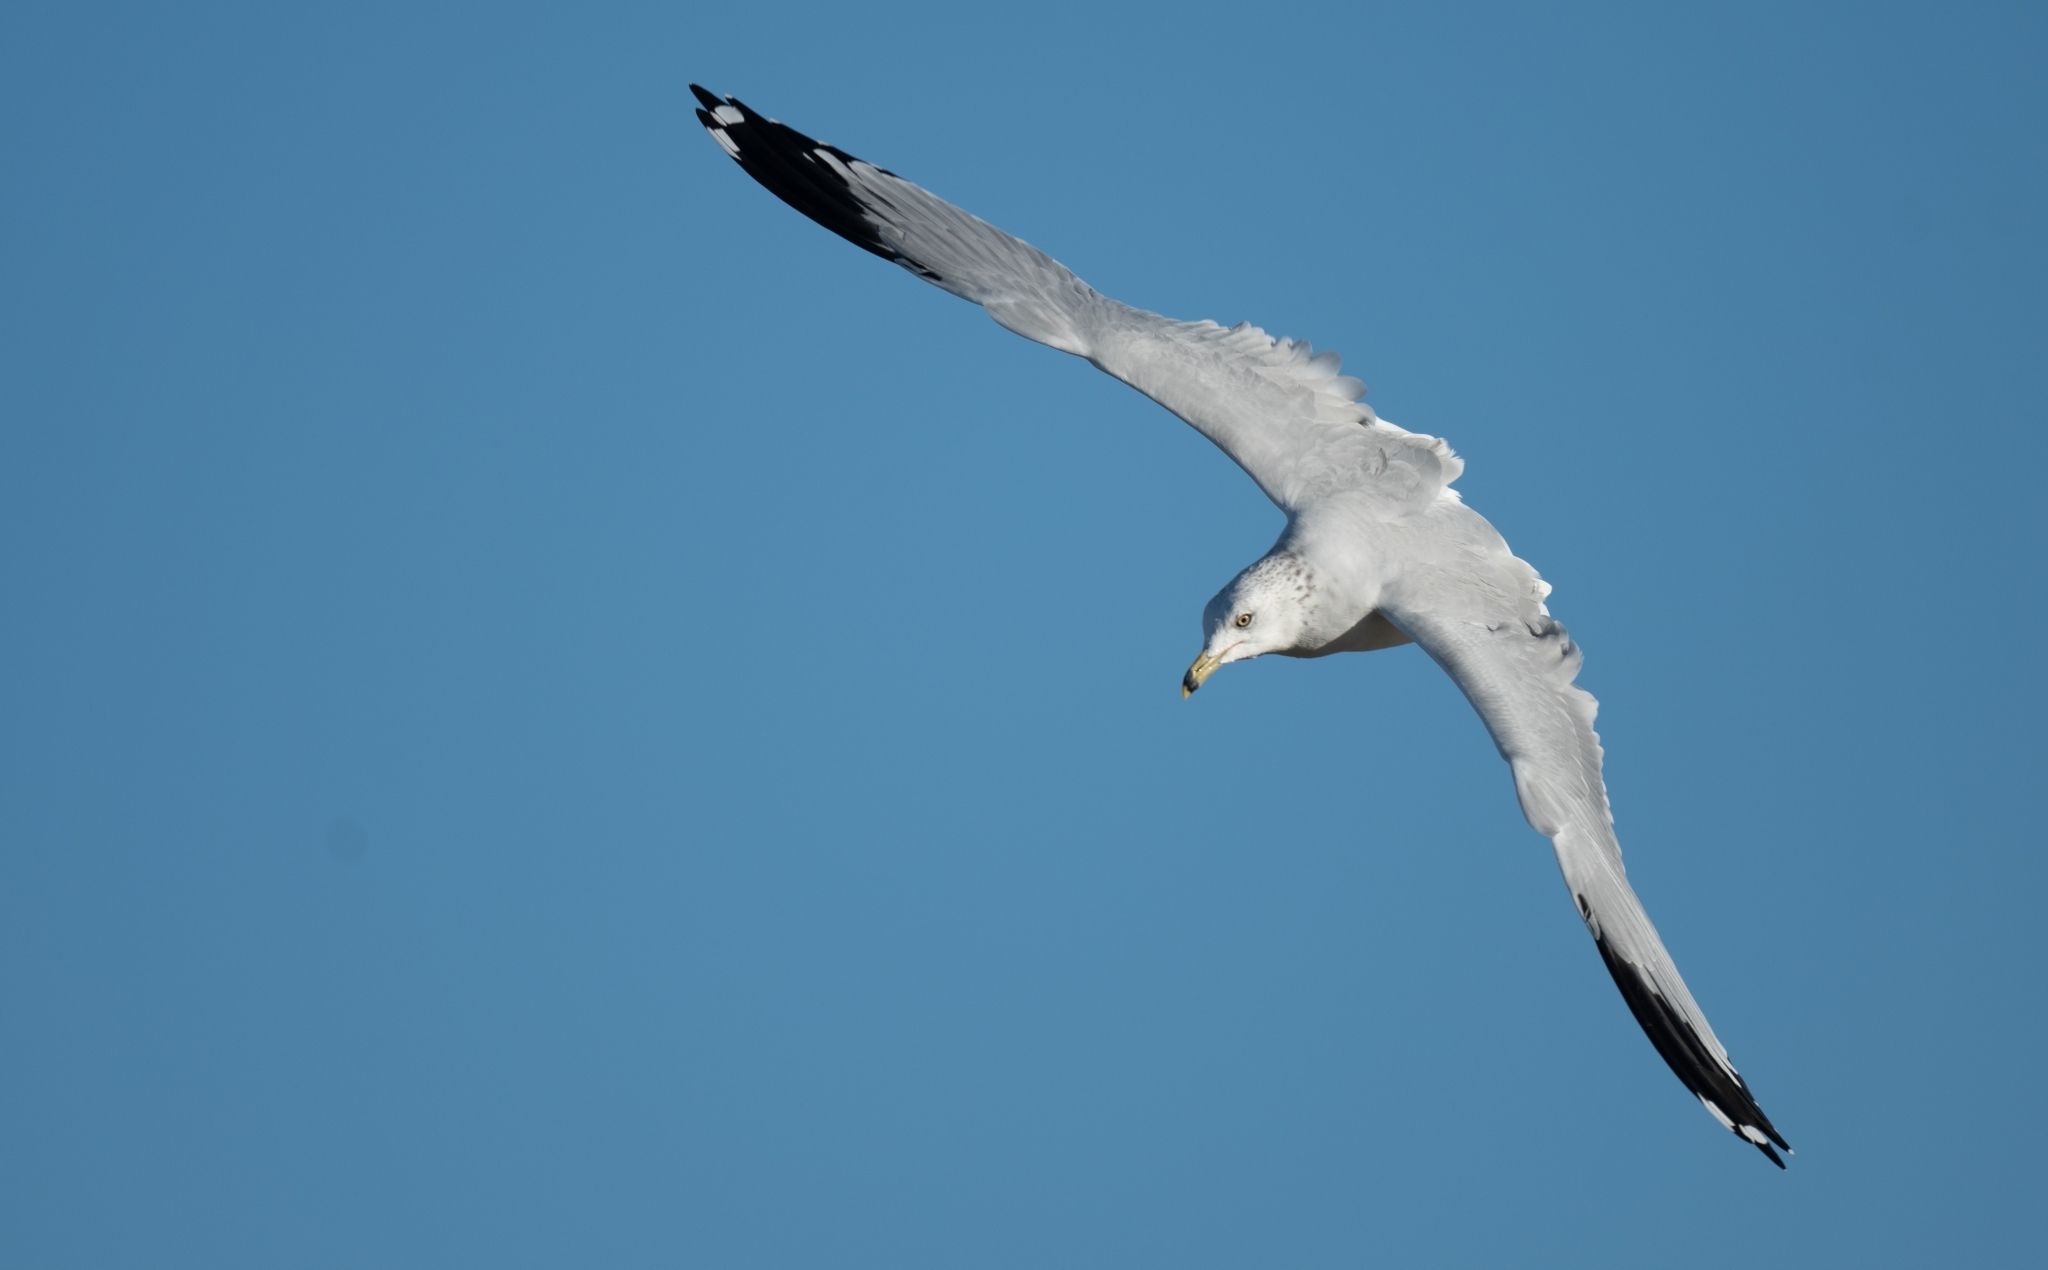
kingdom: Animalia
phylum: Chordata
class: Aves
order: Charadriiformes
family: Laridae
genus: Larus
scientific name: Larus delawarensis
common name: Ring-billed gull
